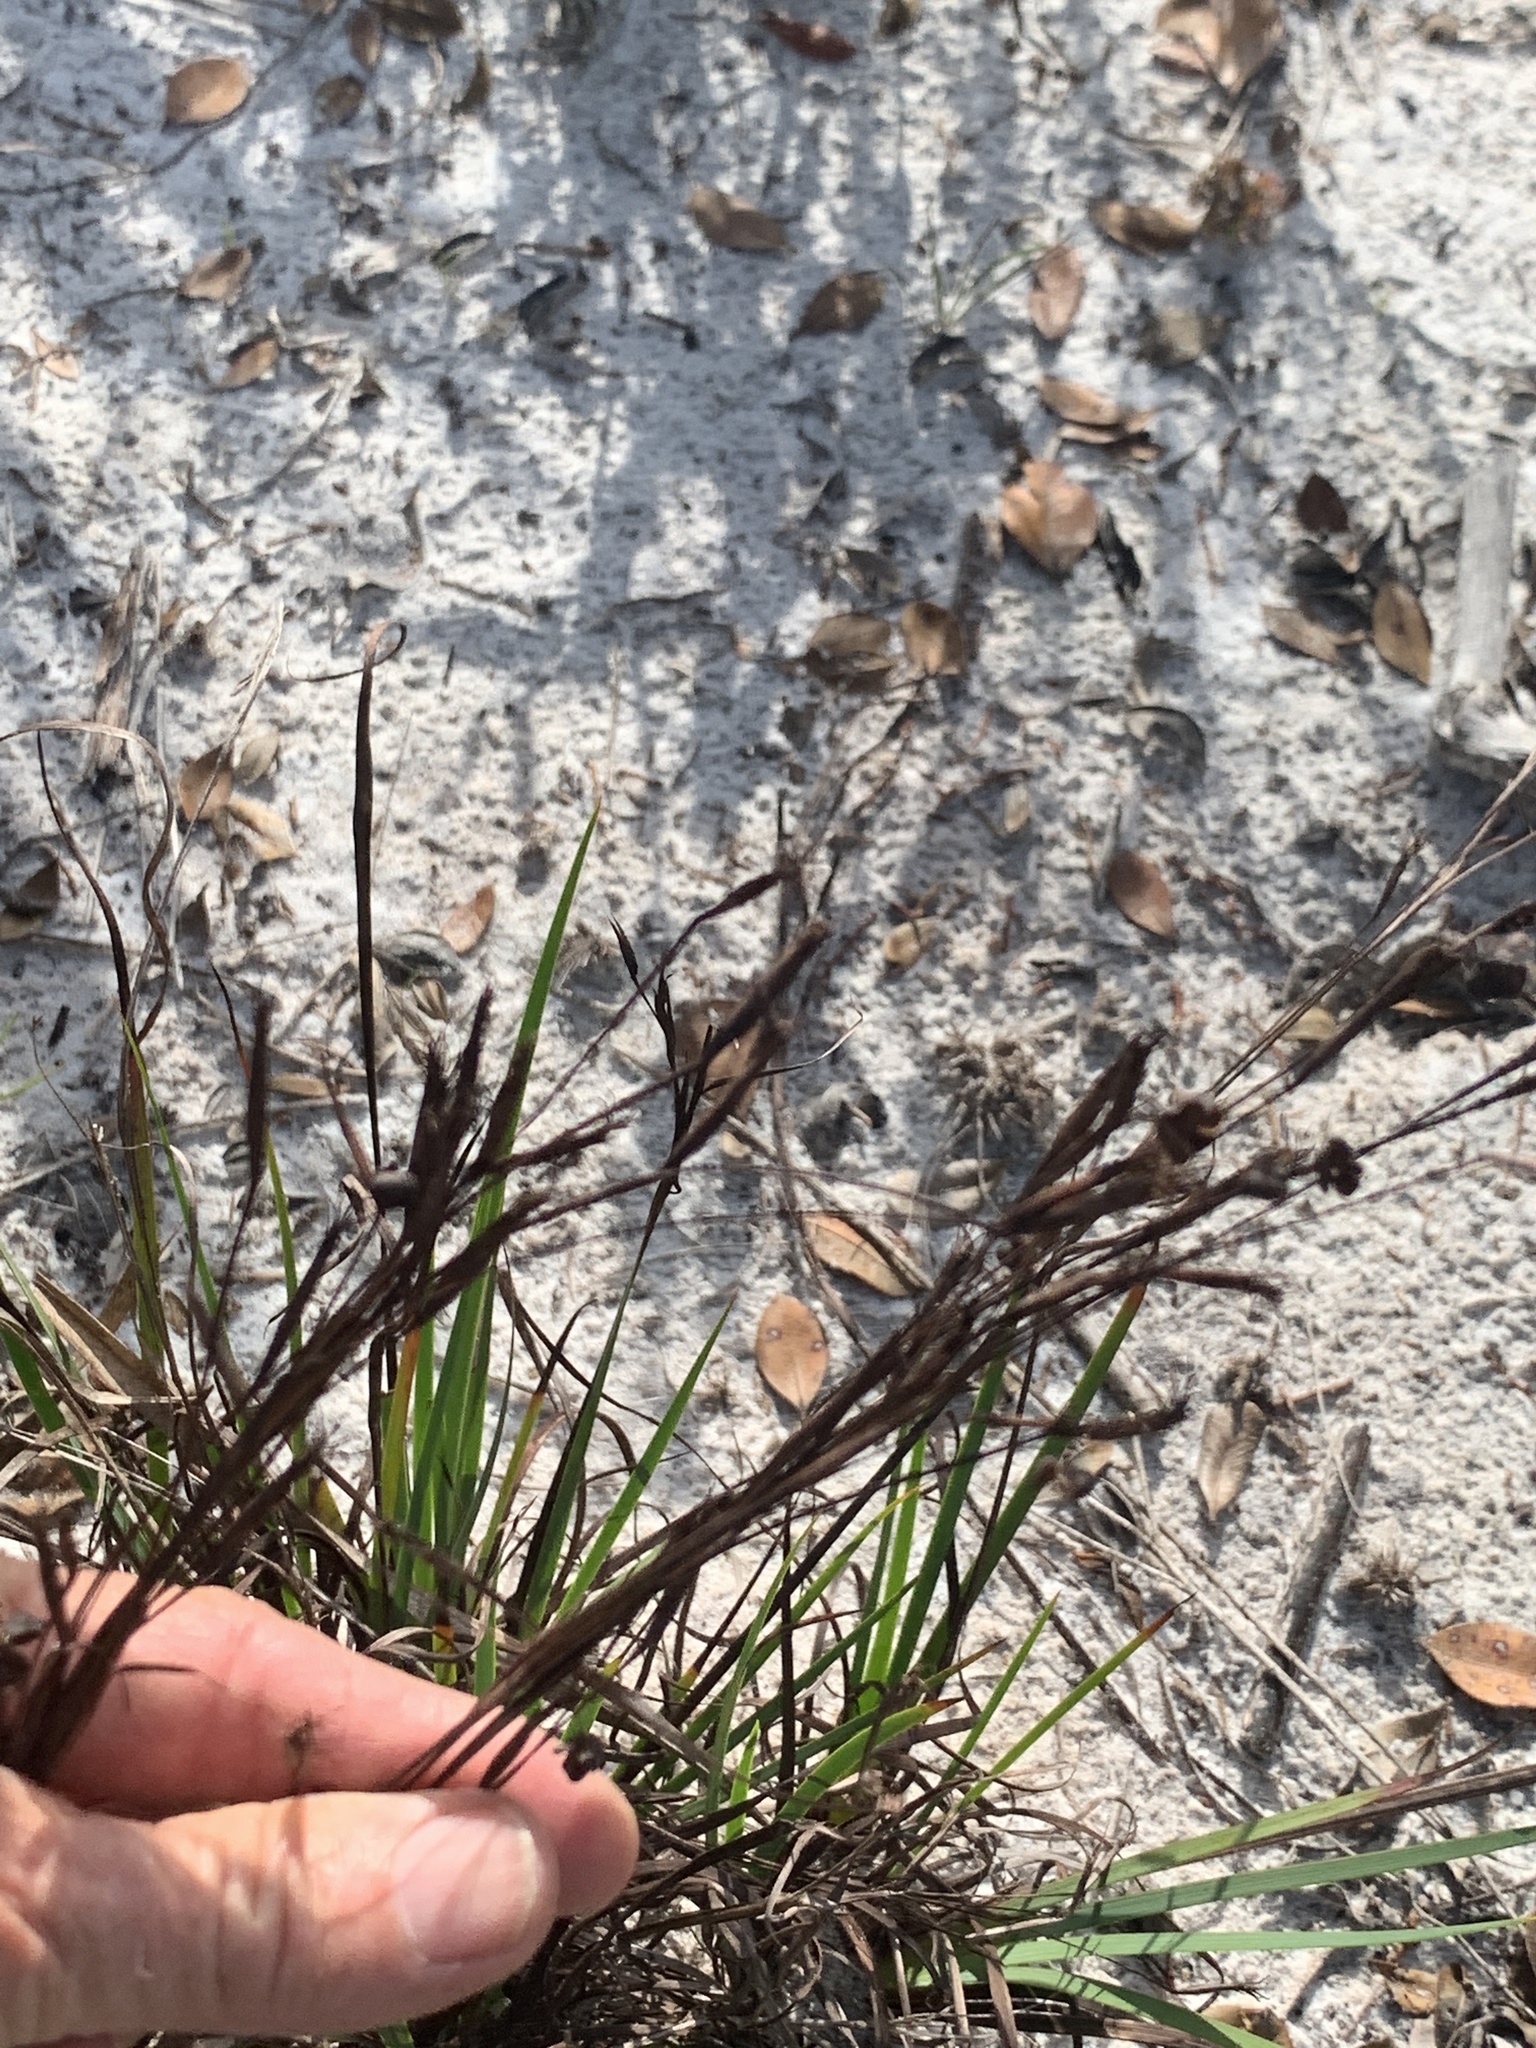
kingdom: Plantae
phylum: Tracheophyta
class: Liliopsida
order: Asparagales
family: Iridaceae
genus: Sisyrinchium
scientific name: Sisyrinchium xerophyllum
